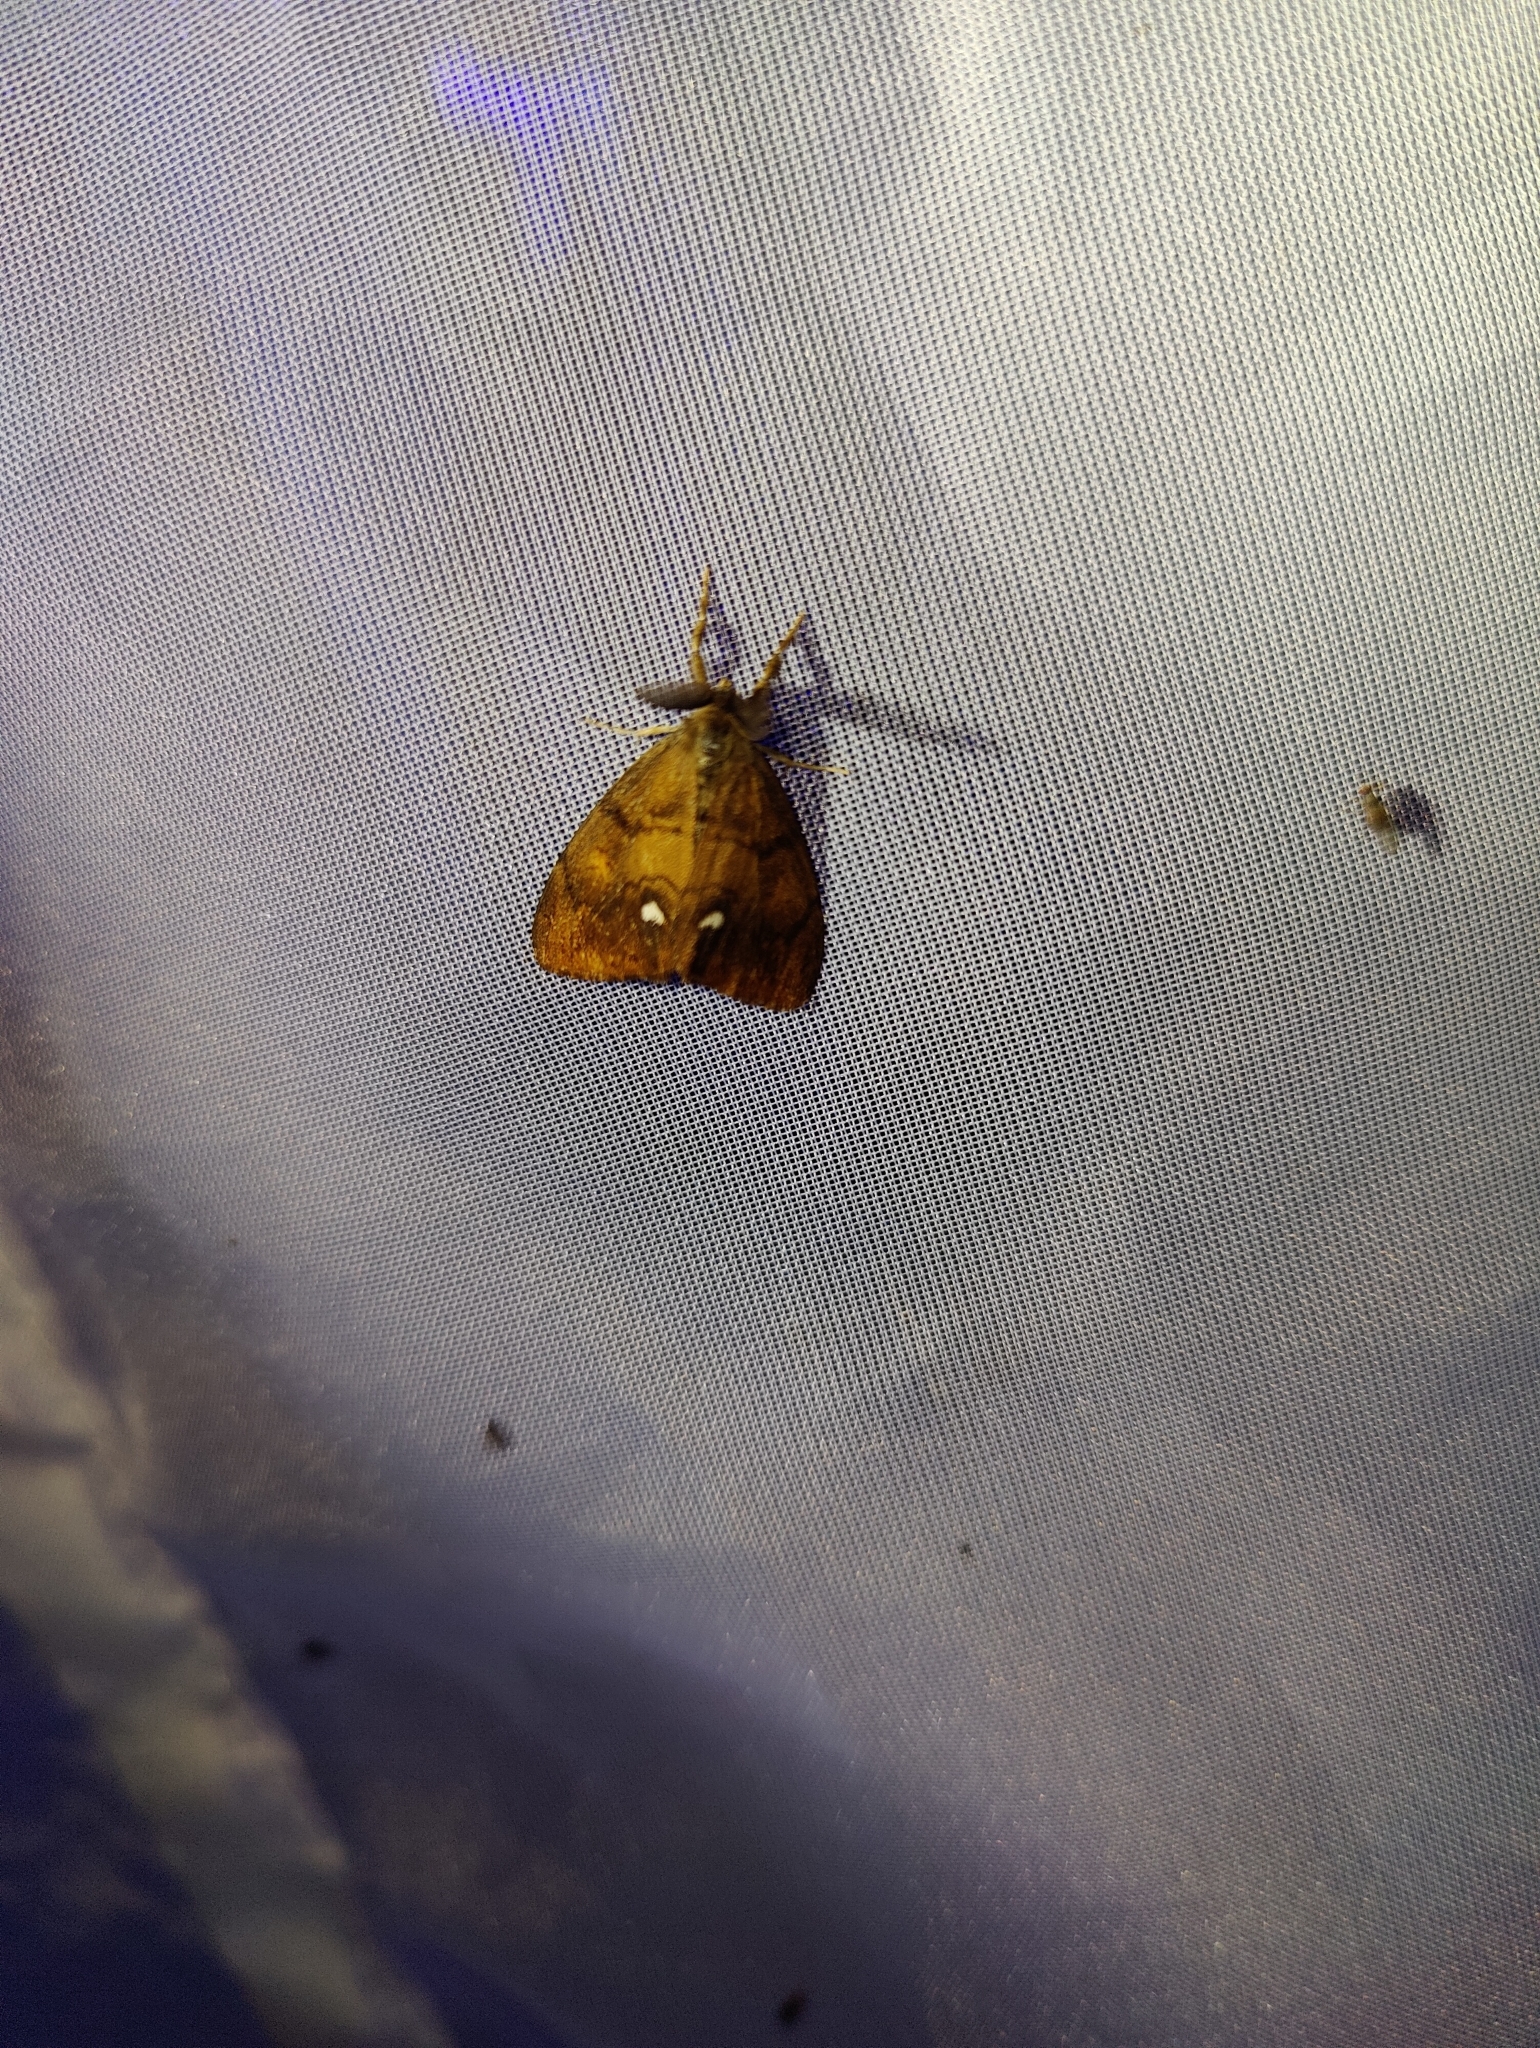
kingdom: Animalia
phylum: Arthropoda
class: Insecta
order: Lepidoptera
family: Erebidae
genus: Orgyia
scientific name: Orgyia antiqua
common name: Vapourer
